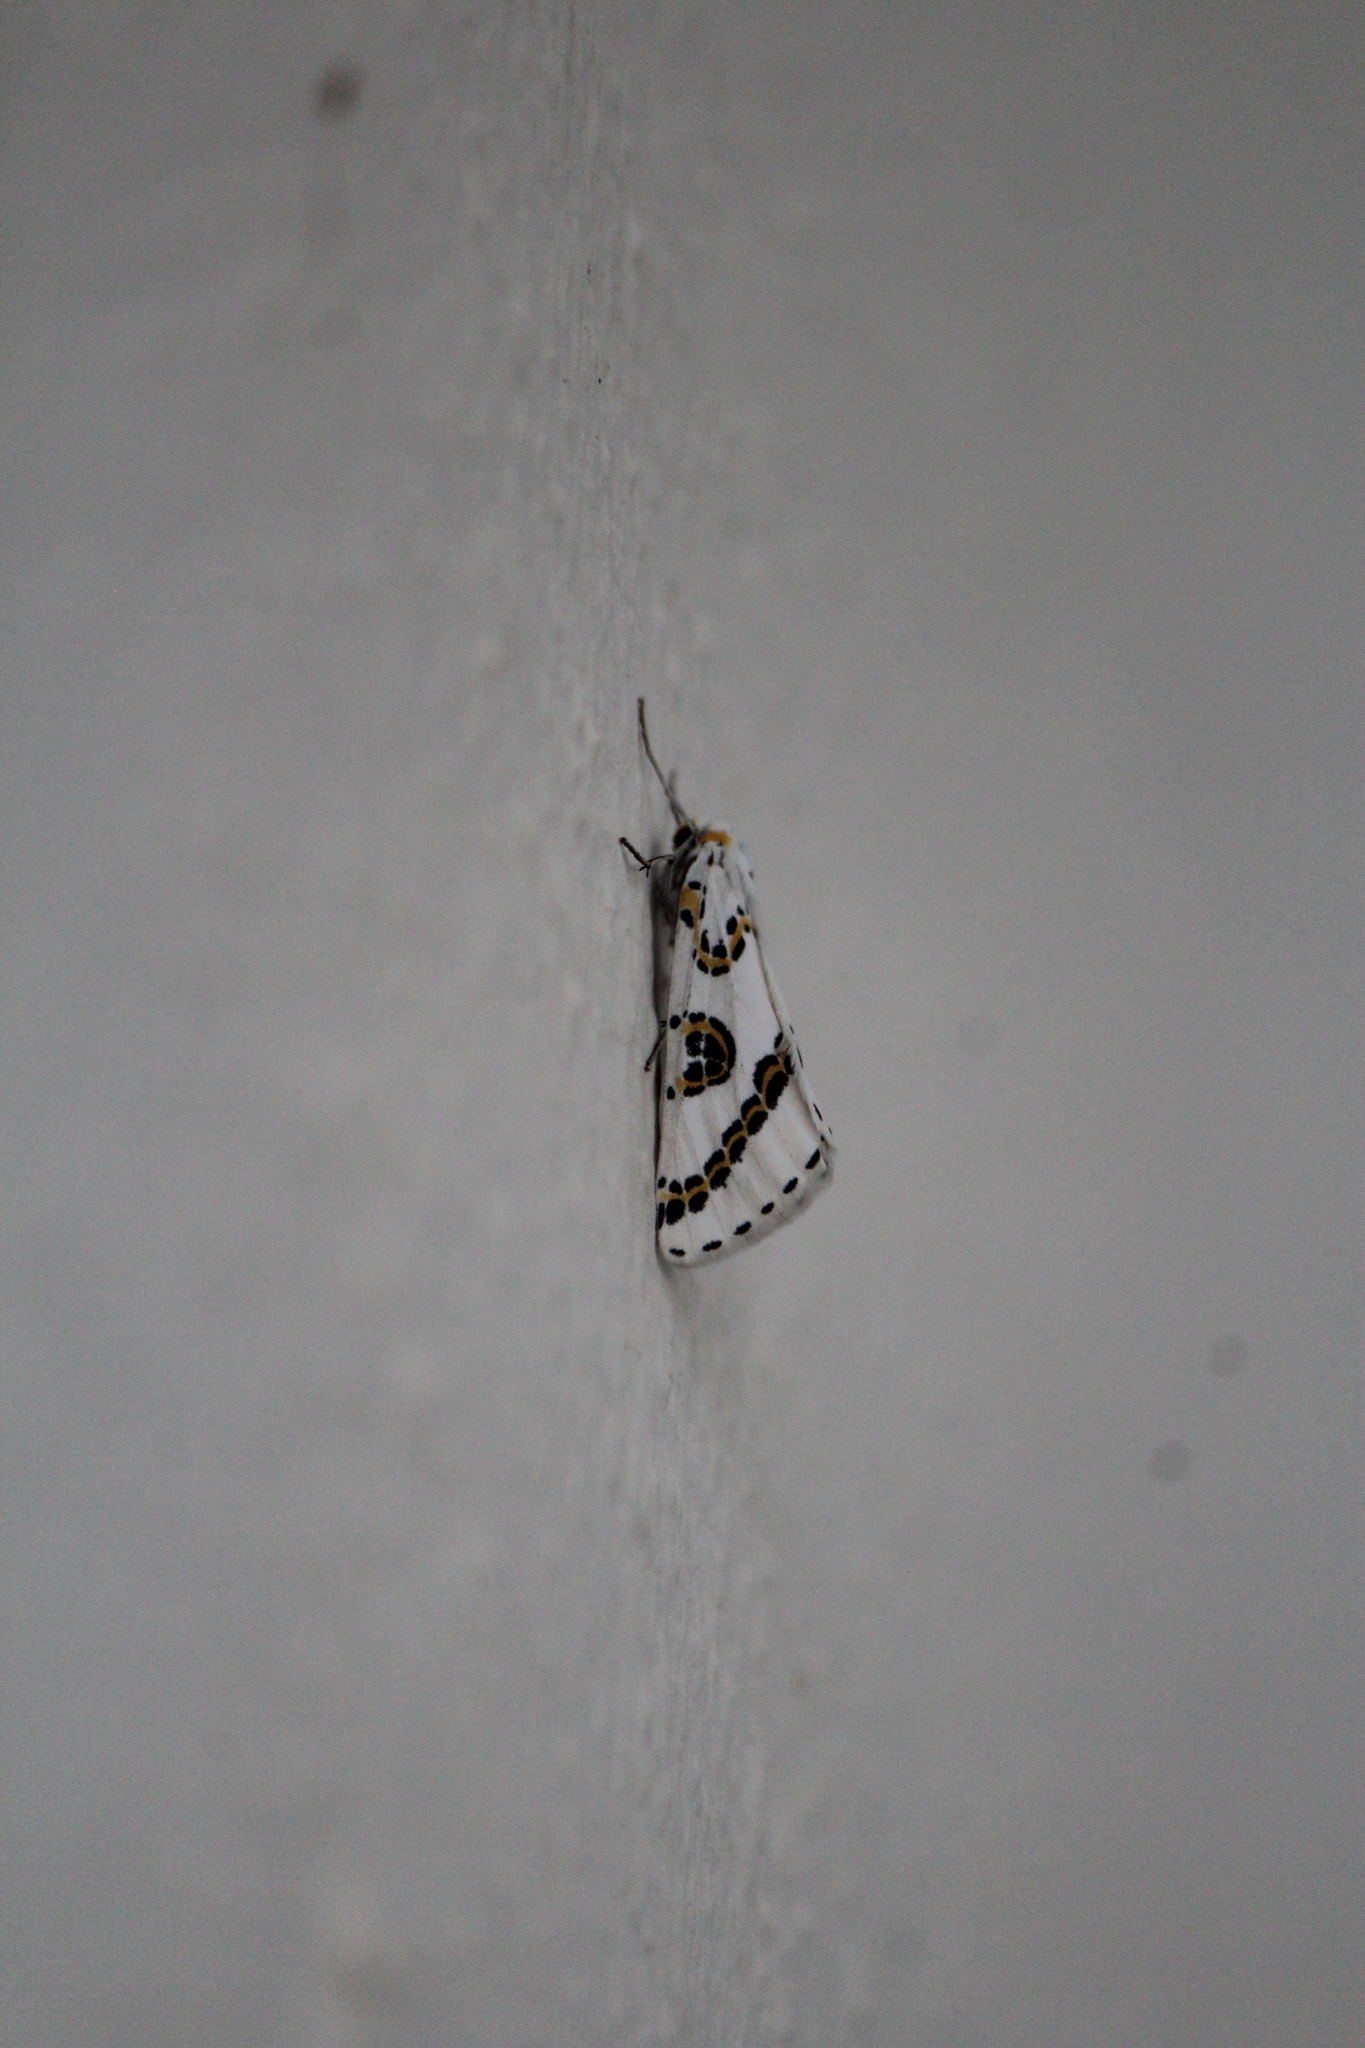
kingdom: Animalia
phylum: Arthropoda
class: Insecta
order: Lepidoptera
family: Geometridae
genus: Philtraea
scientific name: Philtraea mexicana
